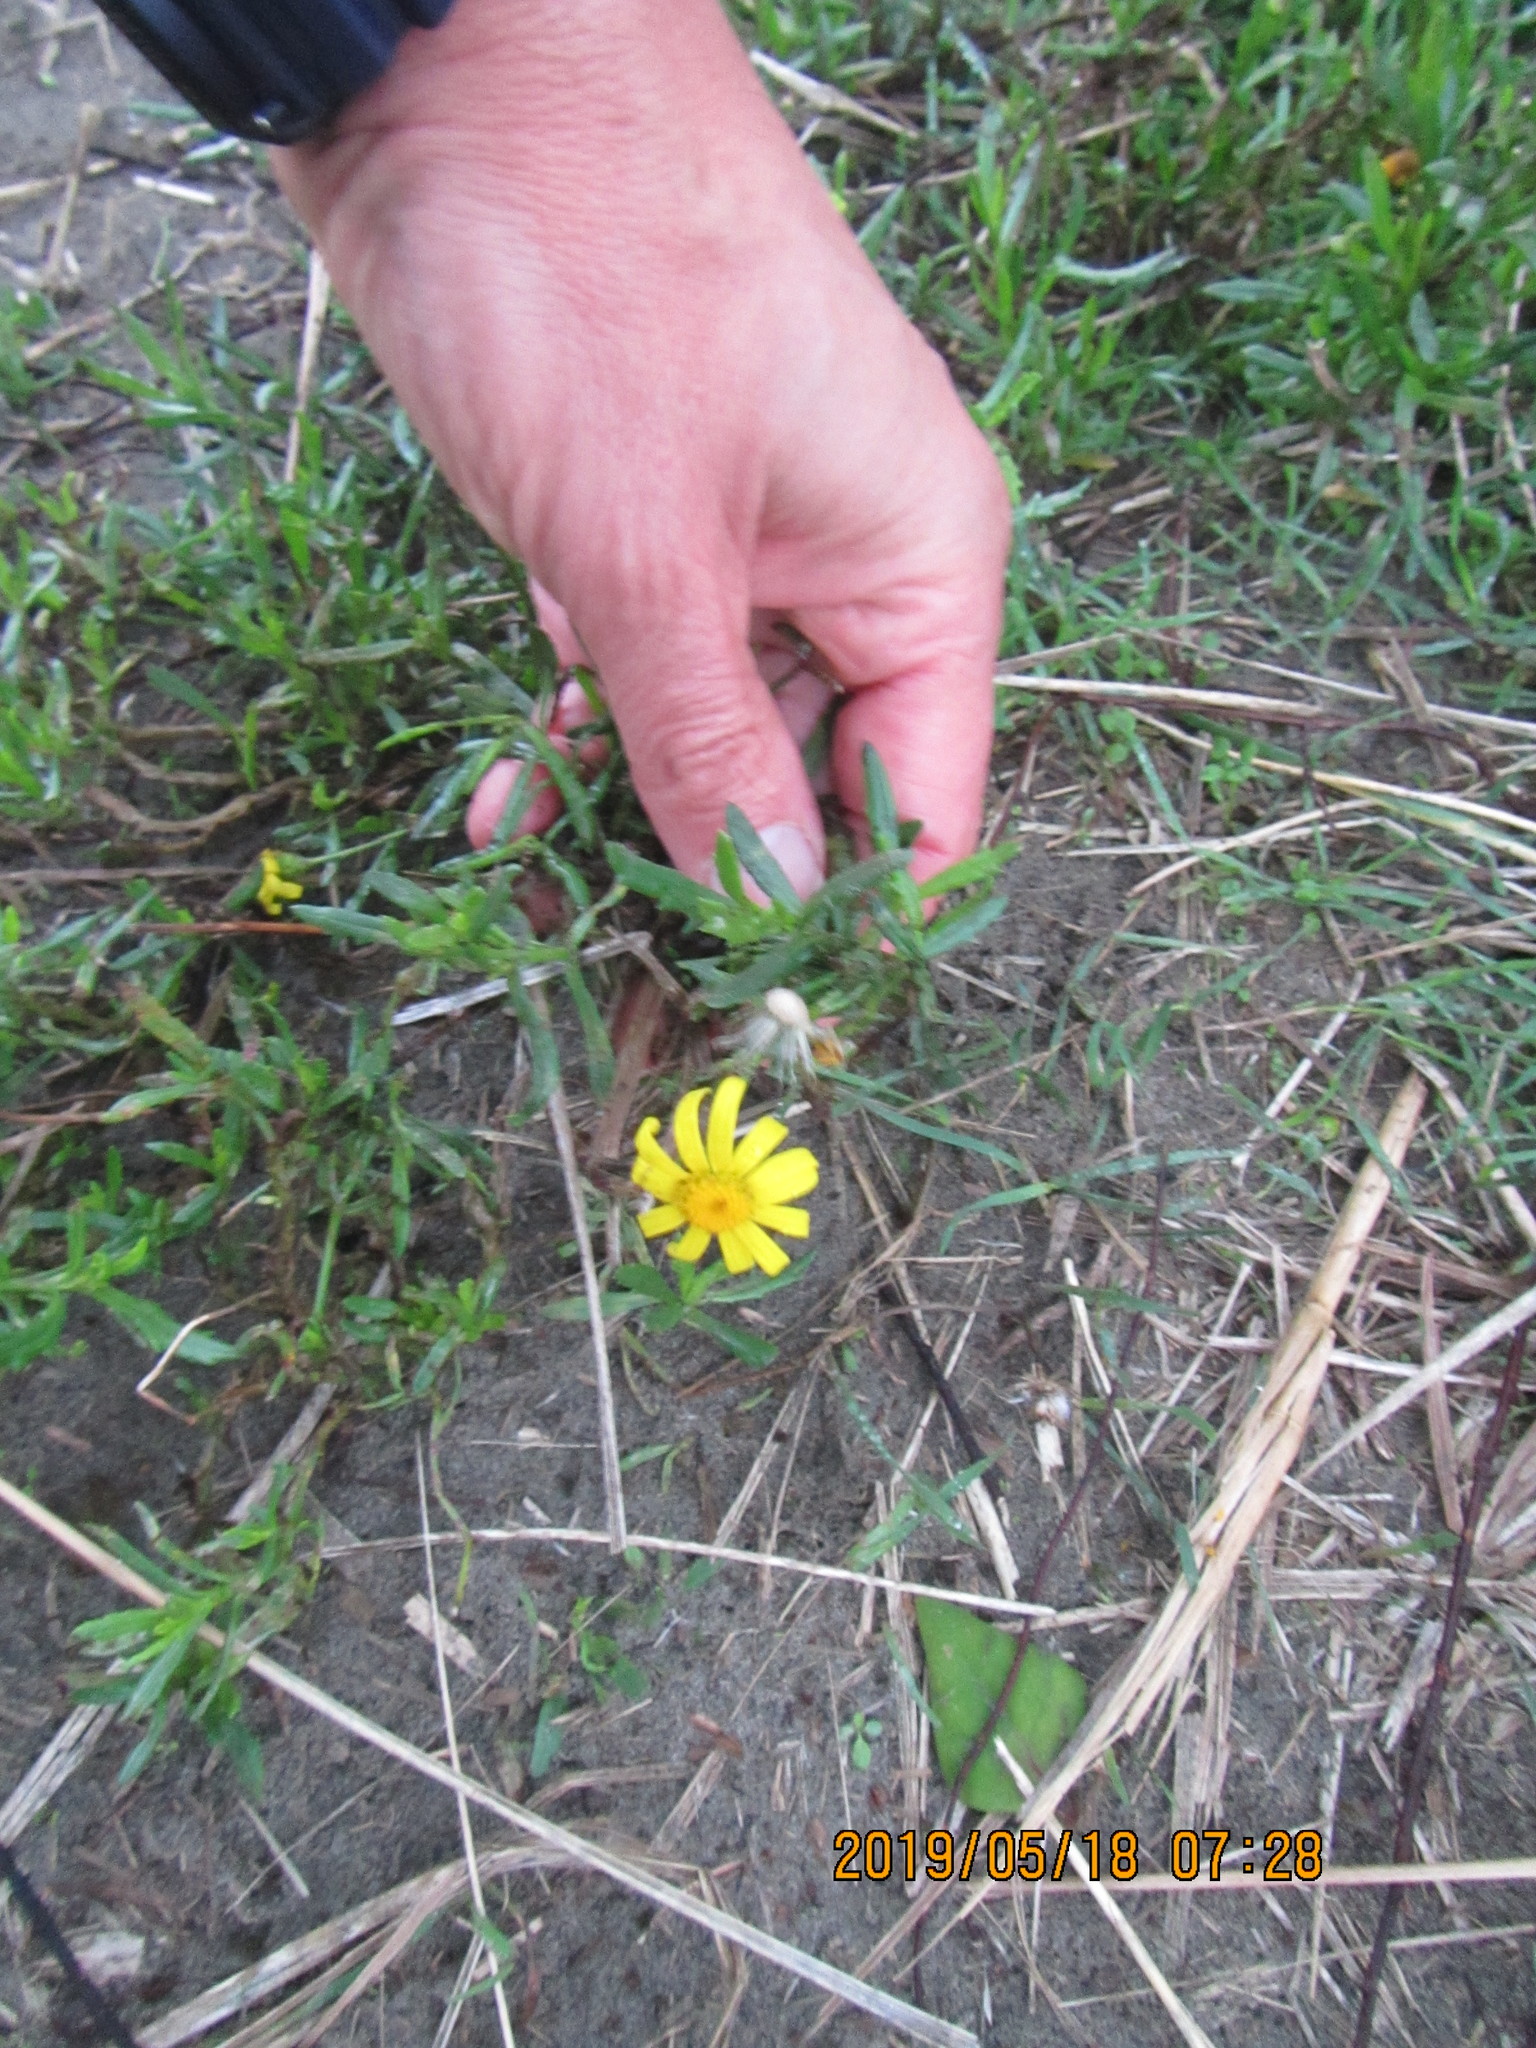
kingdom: Plantae
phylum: Tracheophyta
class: Magnoliopsida
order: Asterales
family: Asteraceae
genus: Senecio
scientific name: Senecio skirrhodon
